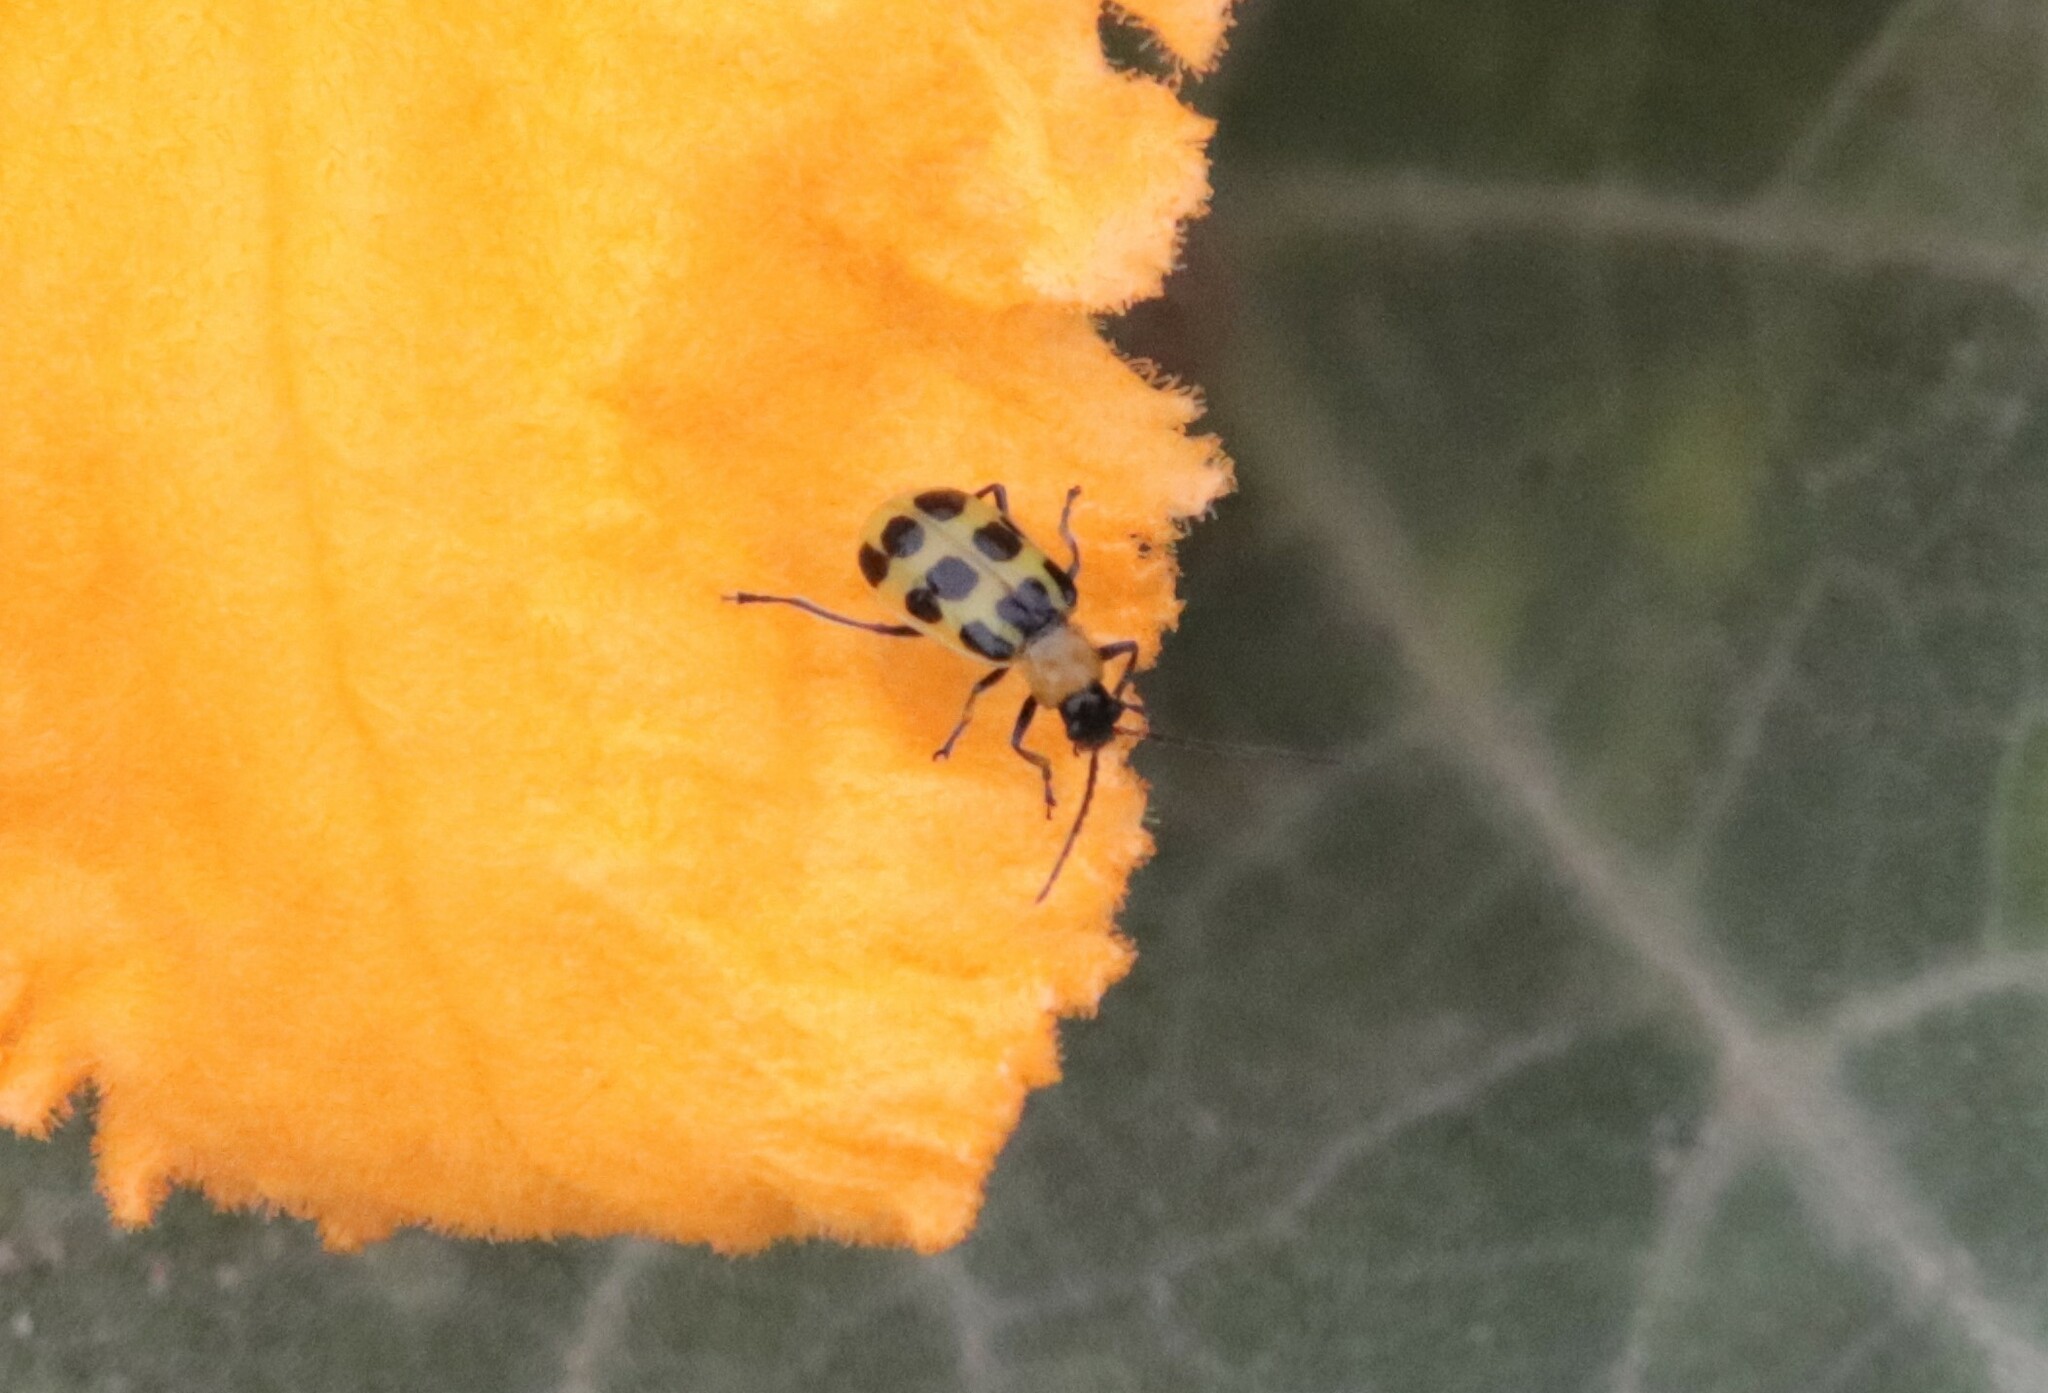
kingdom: Animalia
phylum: Arthropoda
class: Insecta
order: Coleoptera
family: Chrysomelidae
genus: Diabrotica
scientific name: Diabrotica undecimpunctata
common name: Spotted cucumber beetle
